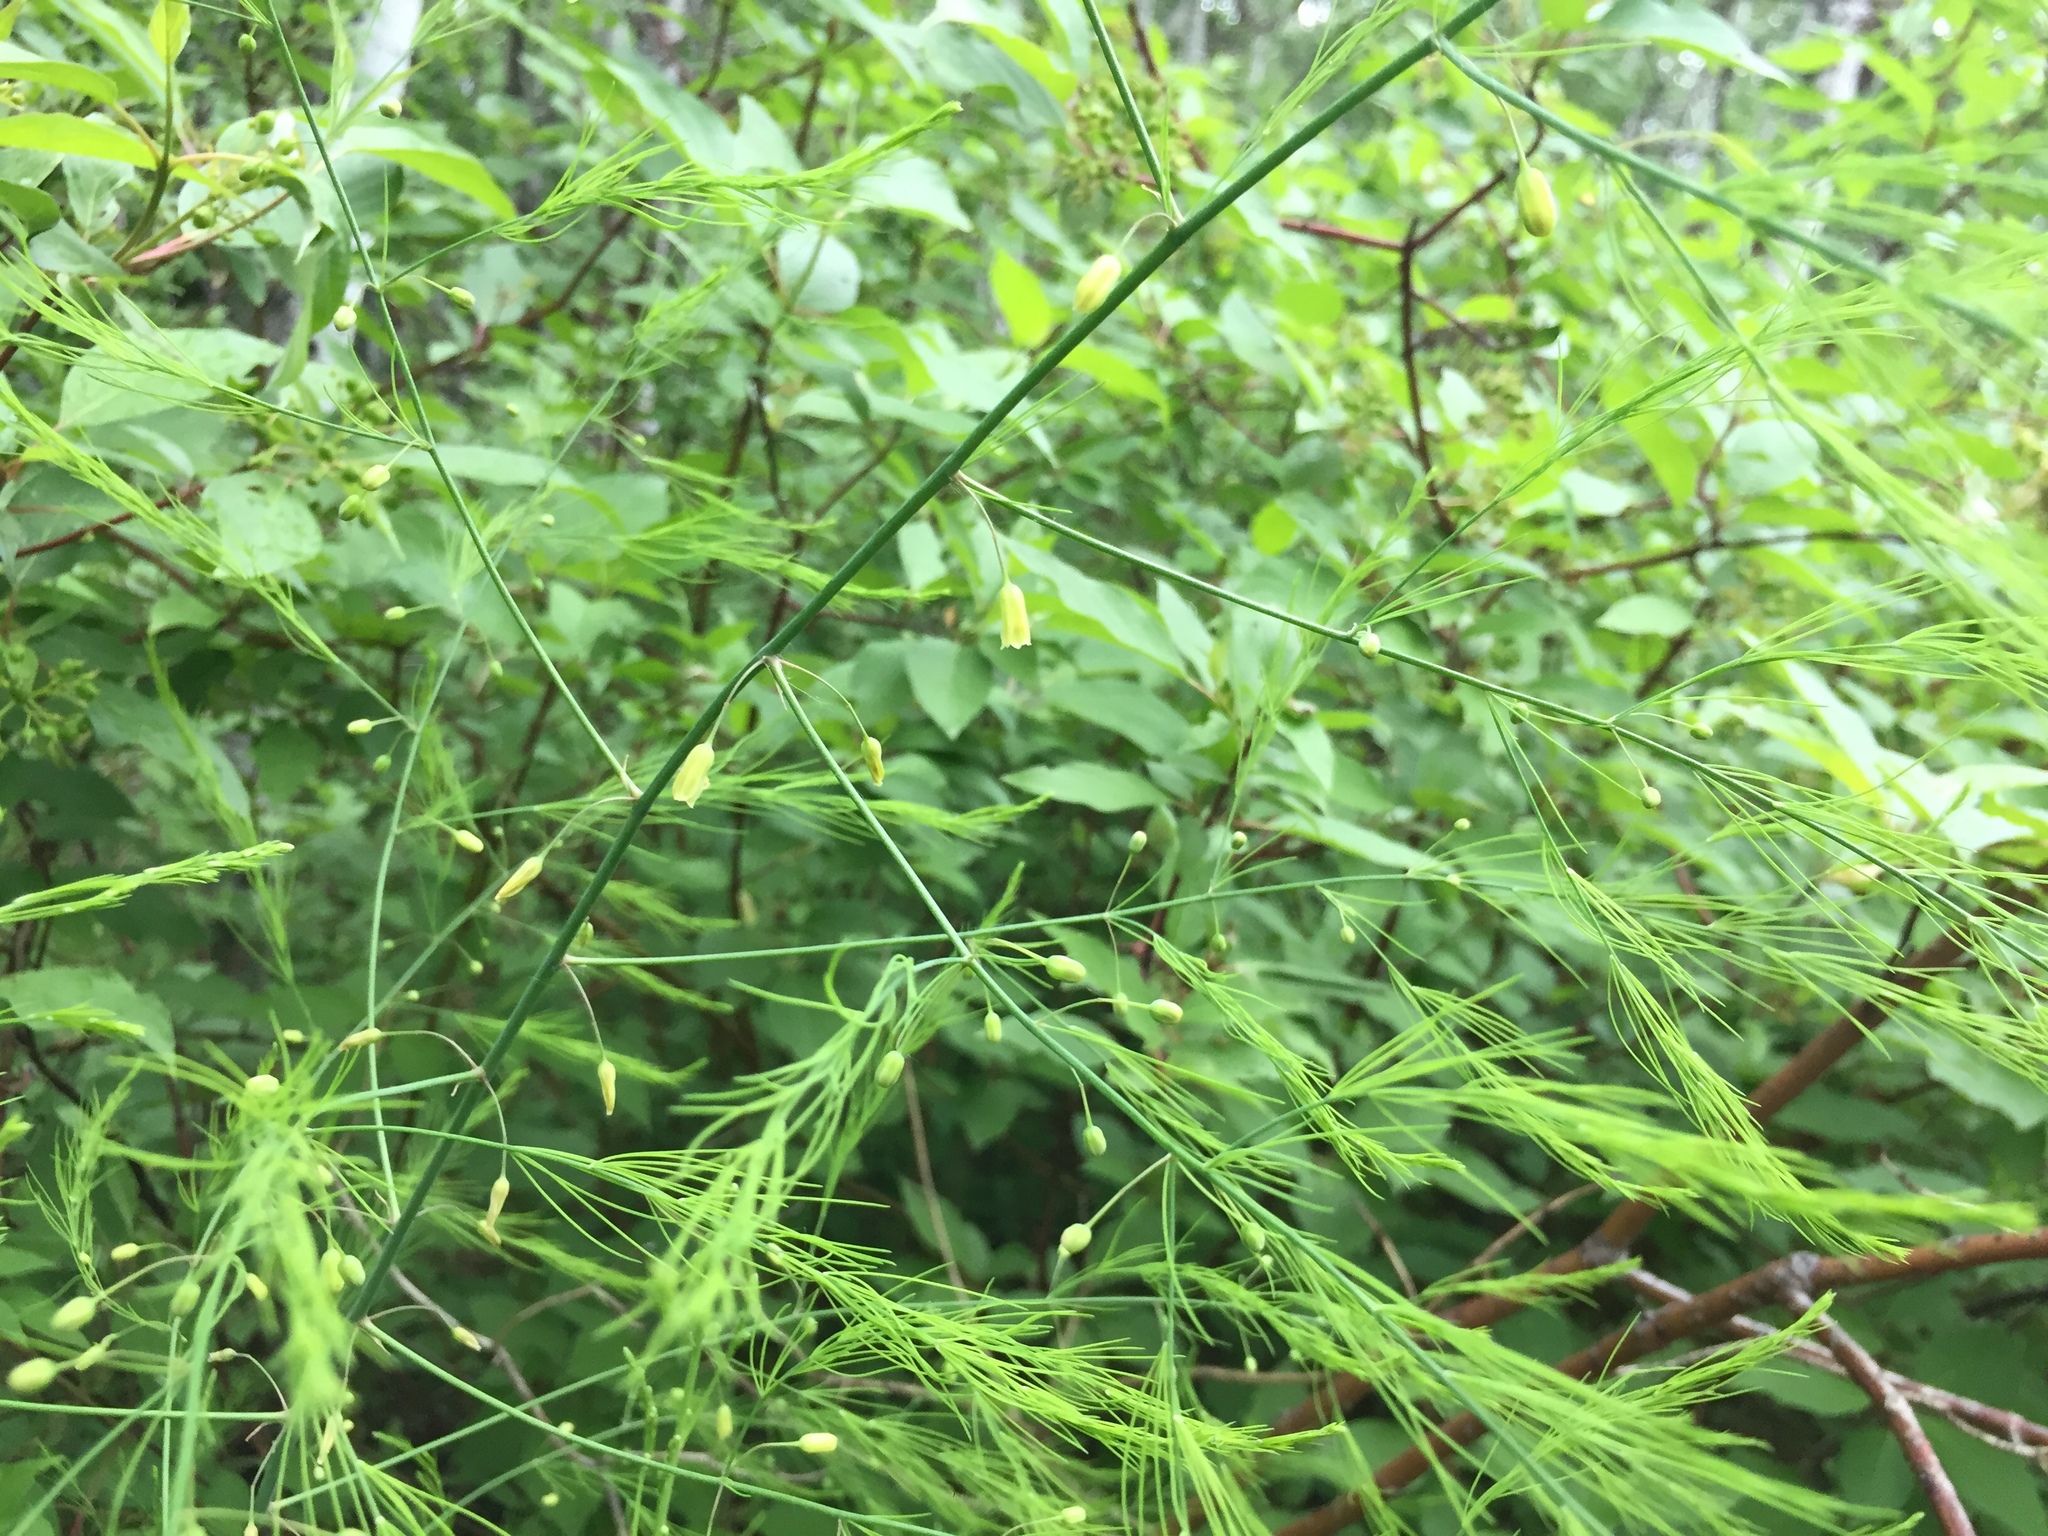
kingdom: Plantae
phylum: Tracheophyta
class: Liliopsida
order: Asparagales
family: Asparagaceae
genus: Asparagus
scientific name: Asparagus officinalis
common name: Garden asparagus
